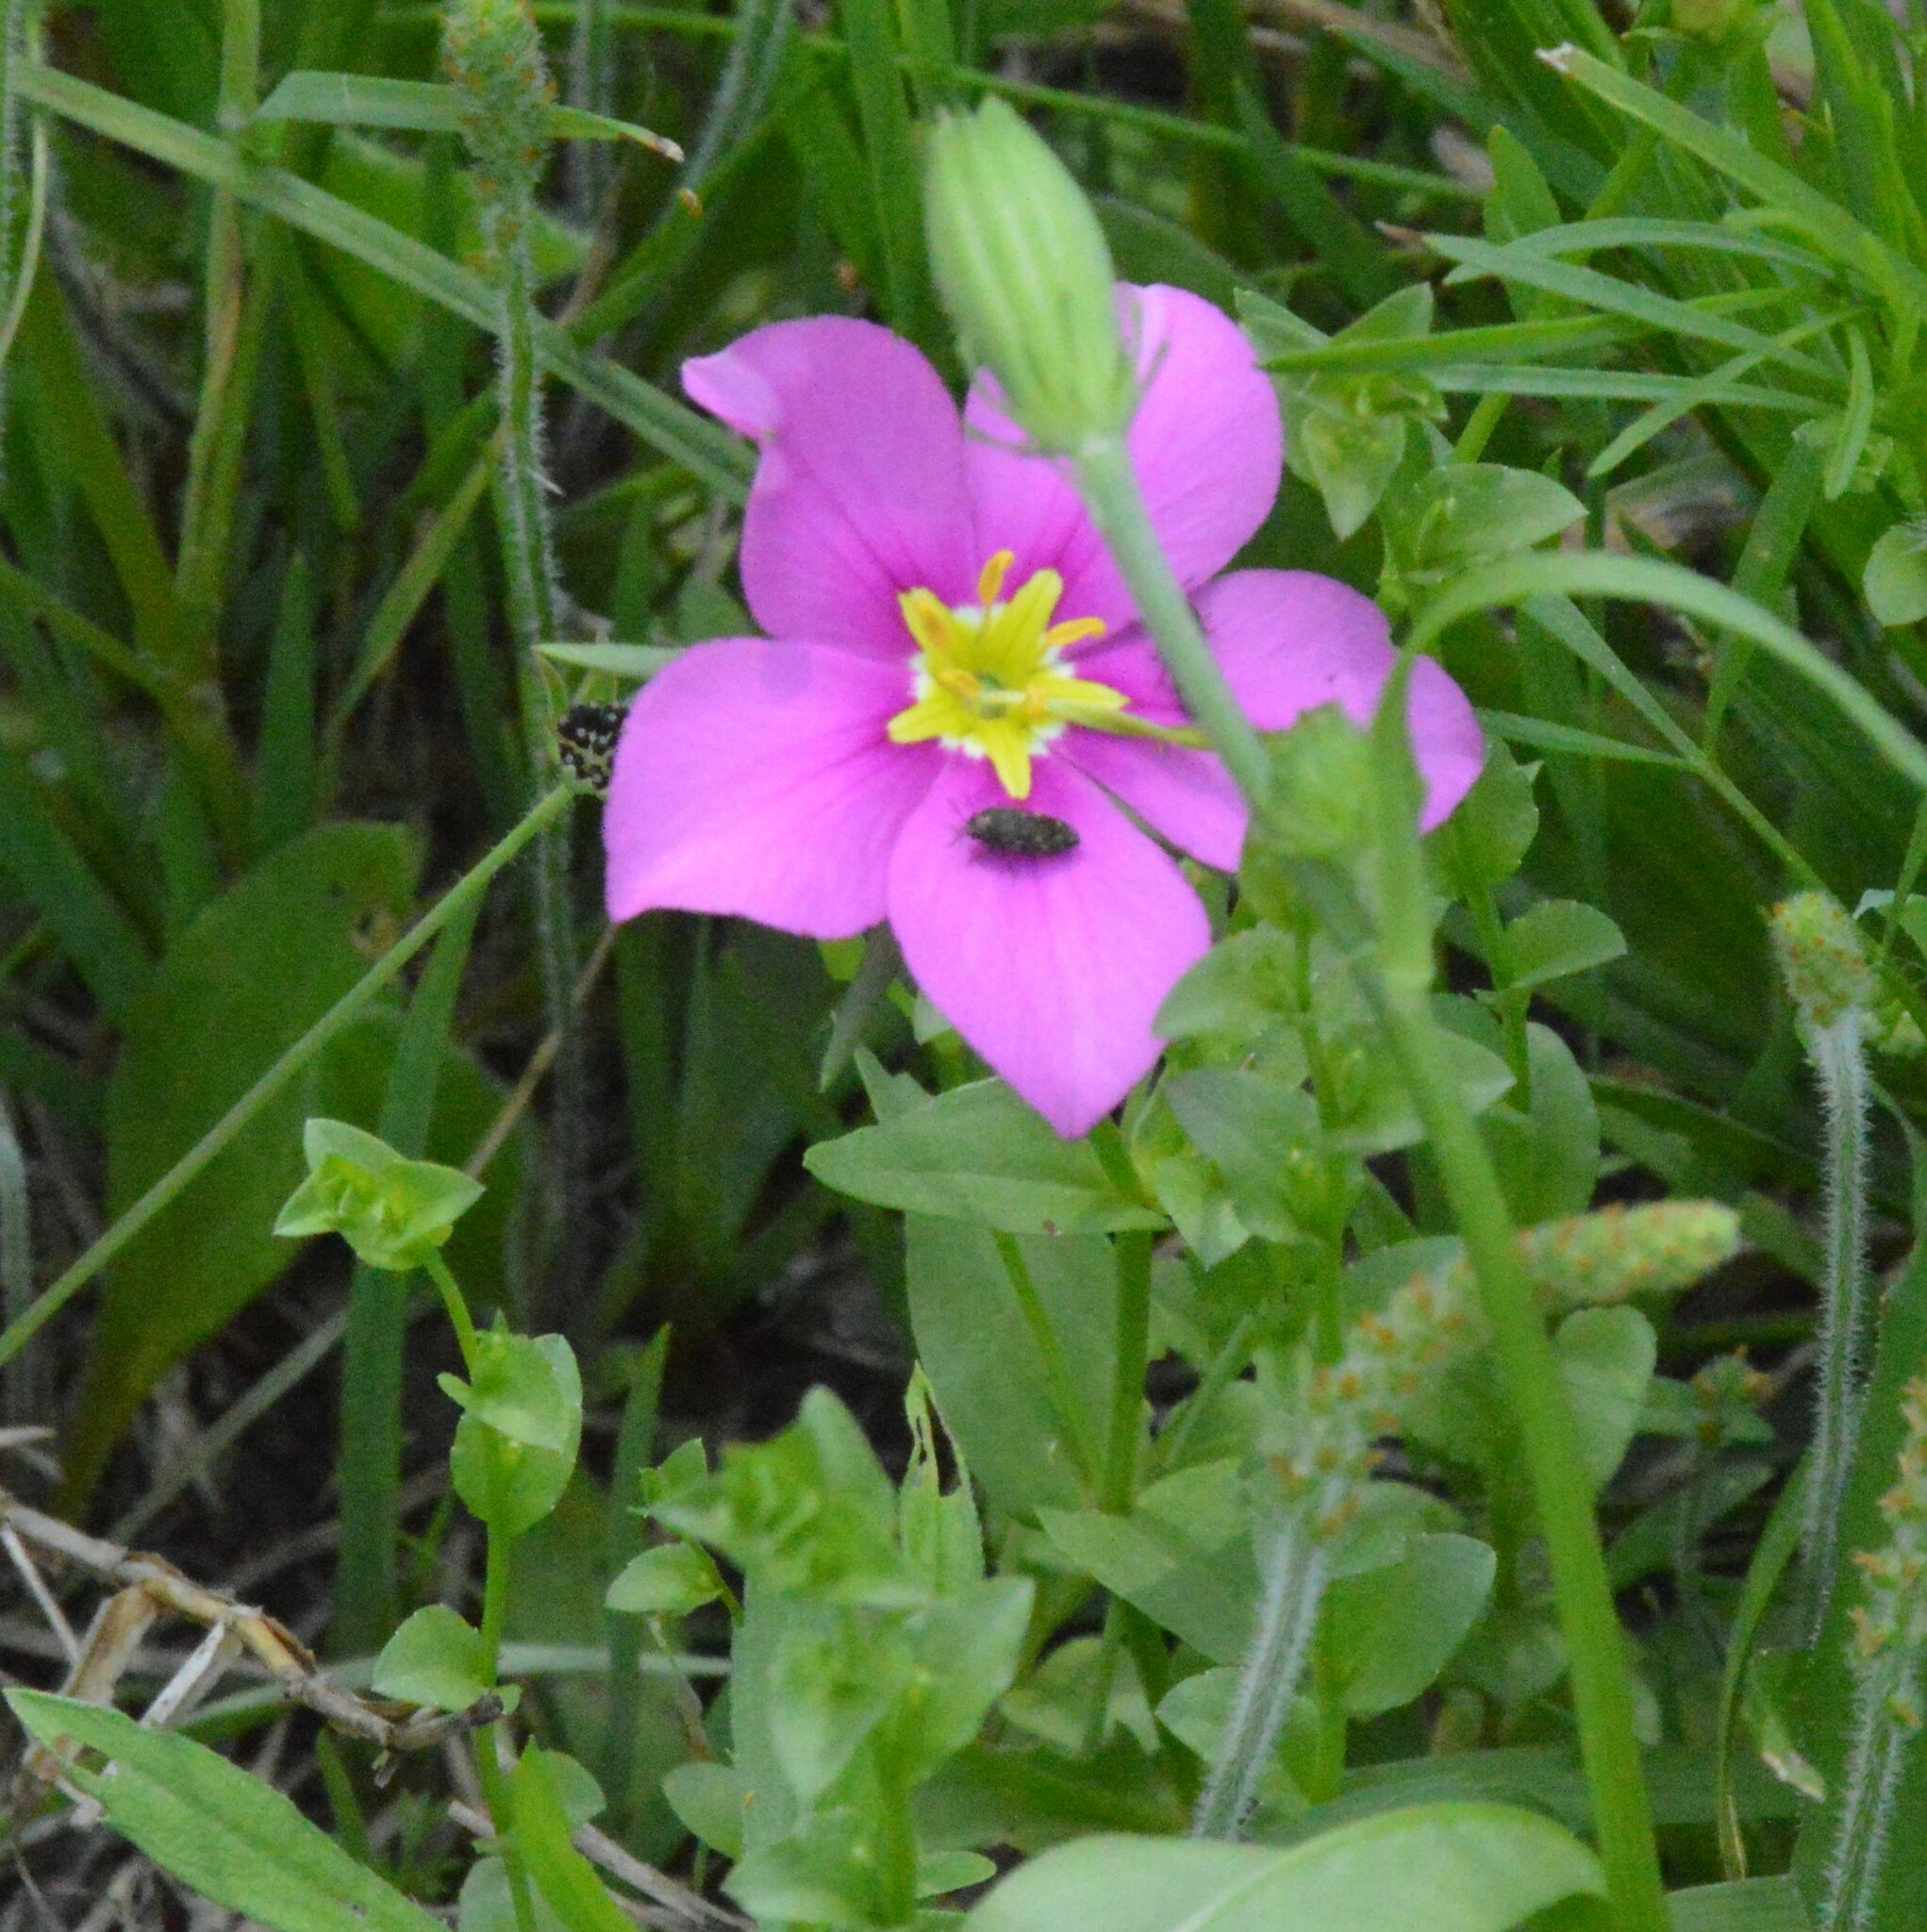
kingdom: Plantae
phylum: Tracheophyta
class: Magnoliopsida
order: Gentianales
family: Gentianaceae
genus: Sabatia
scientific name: Sabatia campestris
